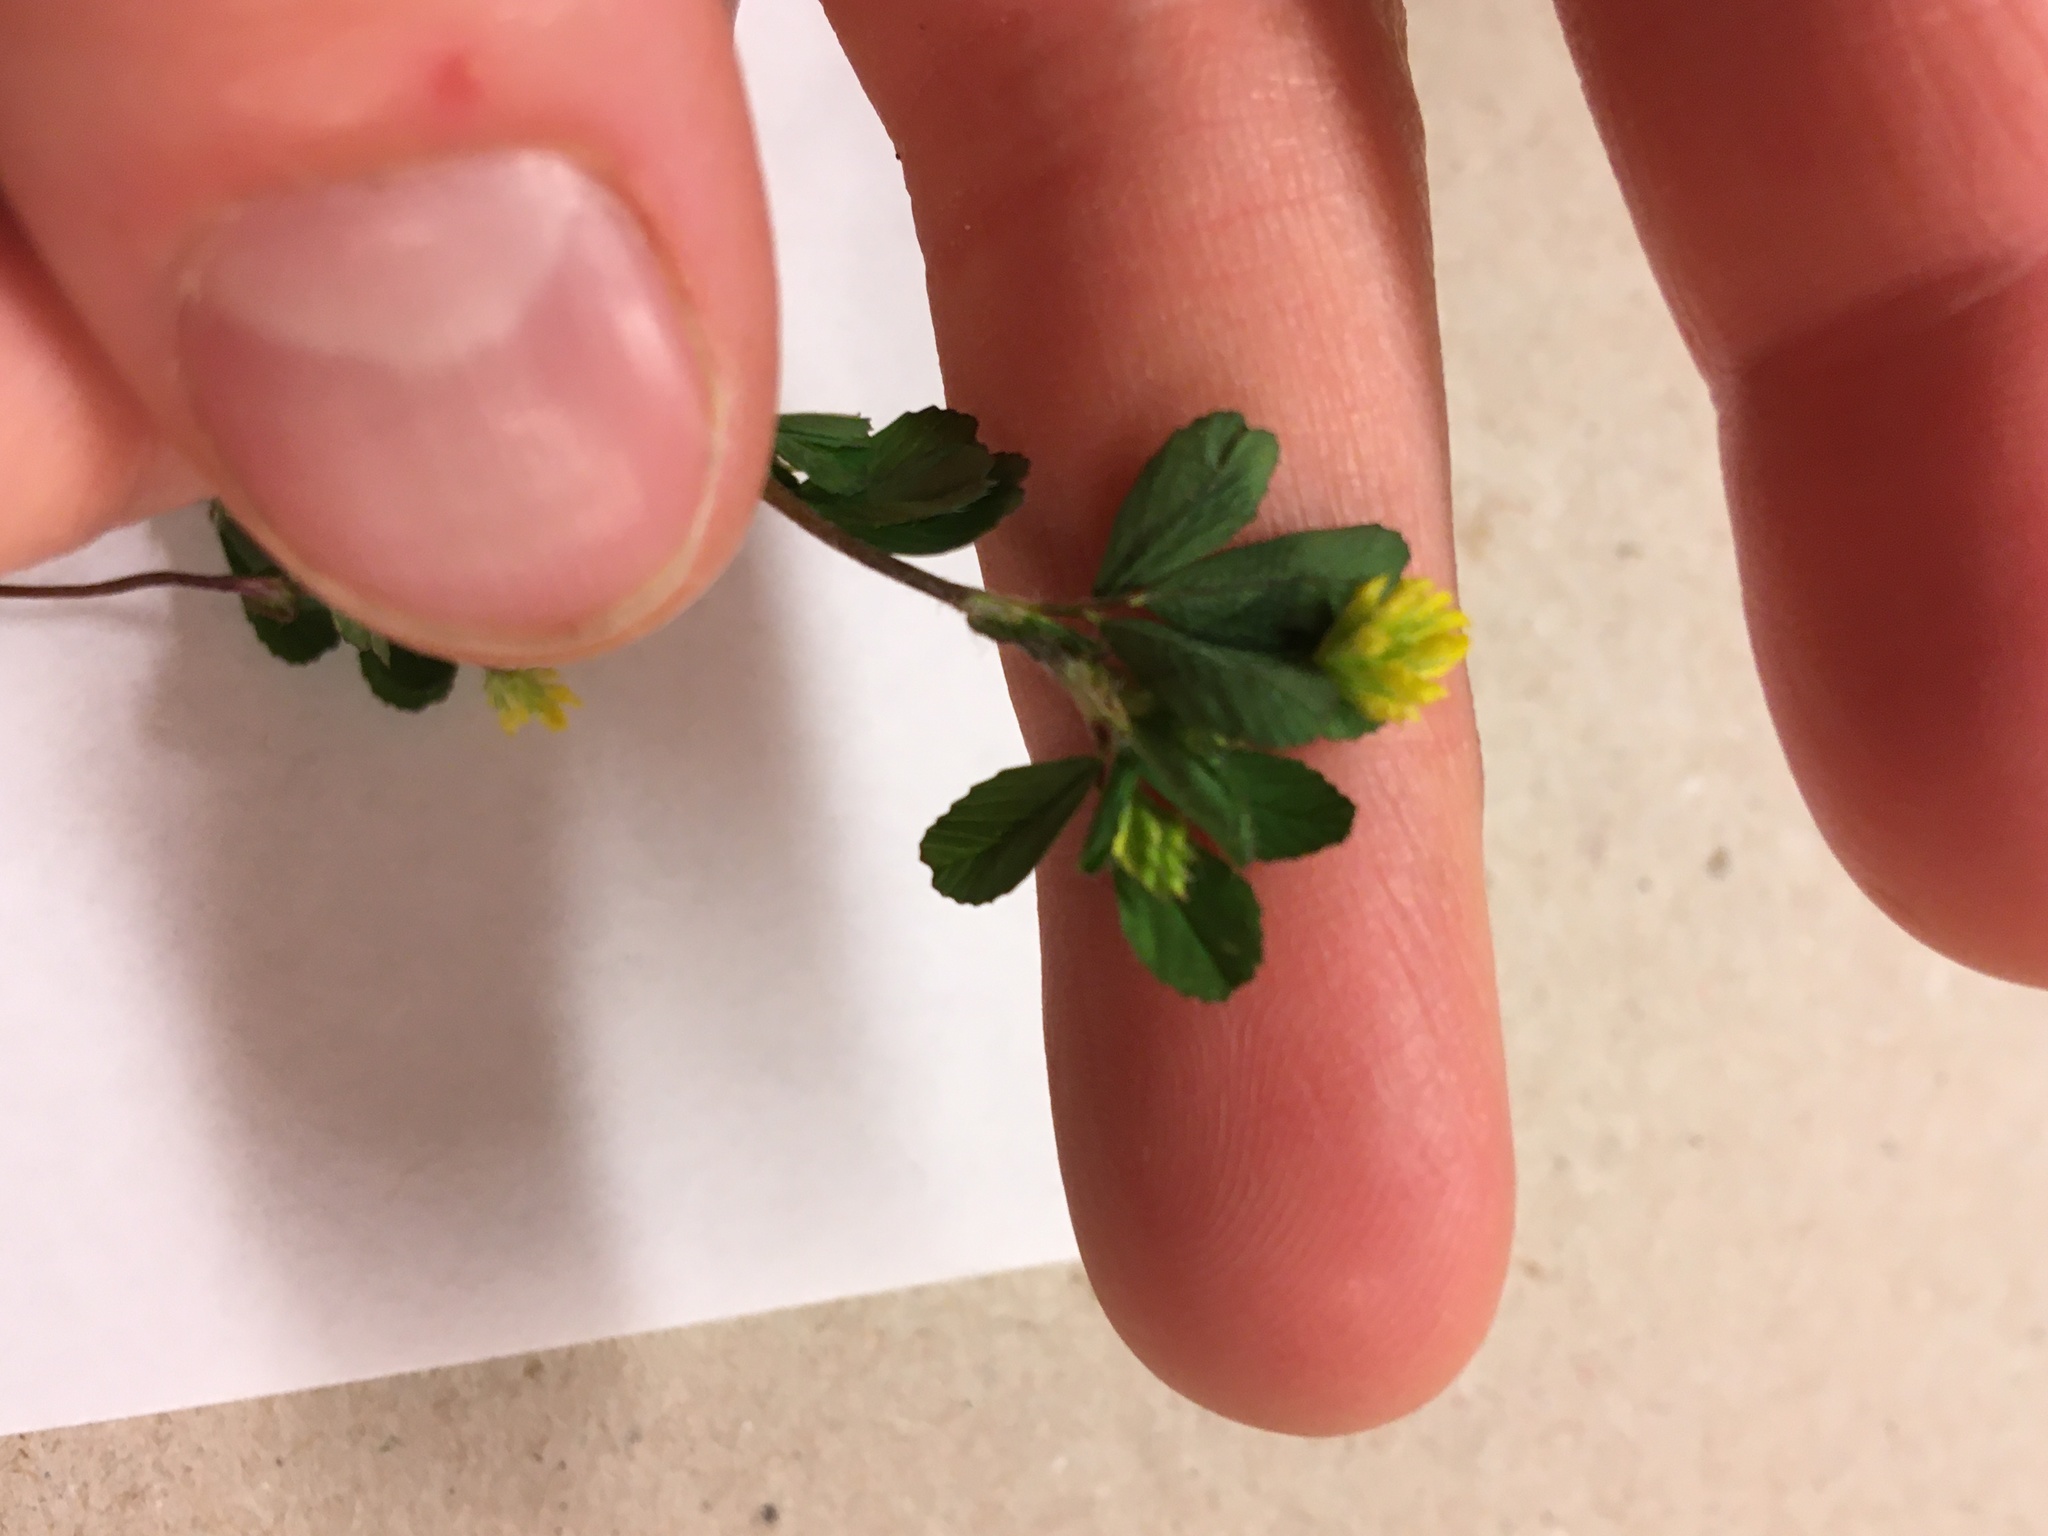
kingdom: Plantae
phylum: Tracheophyta
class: Magnoliopsida
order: Fabales
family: Fabaceae
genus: Trifolium
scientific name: Trifolium dubium
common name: Suckling clover
